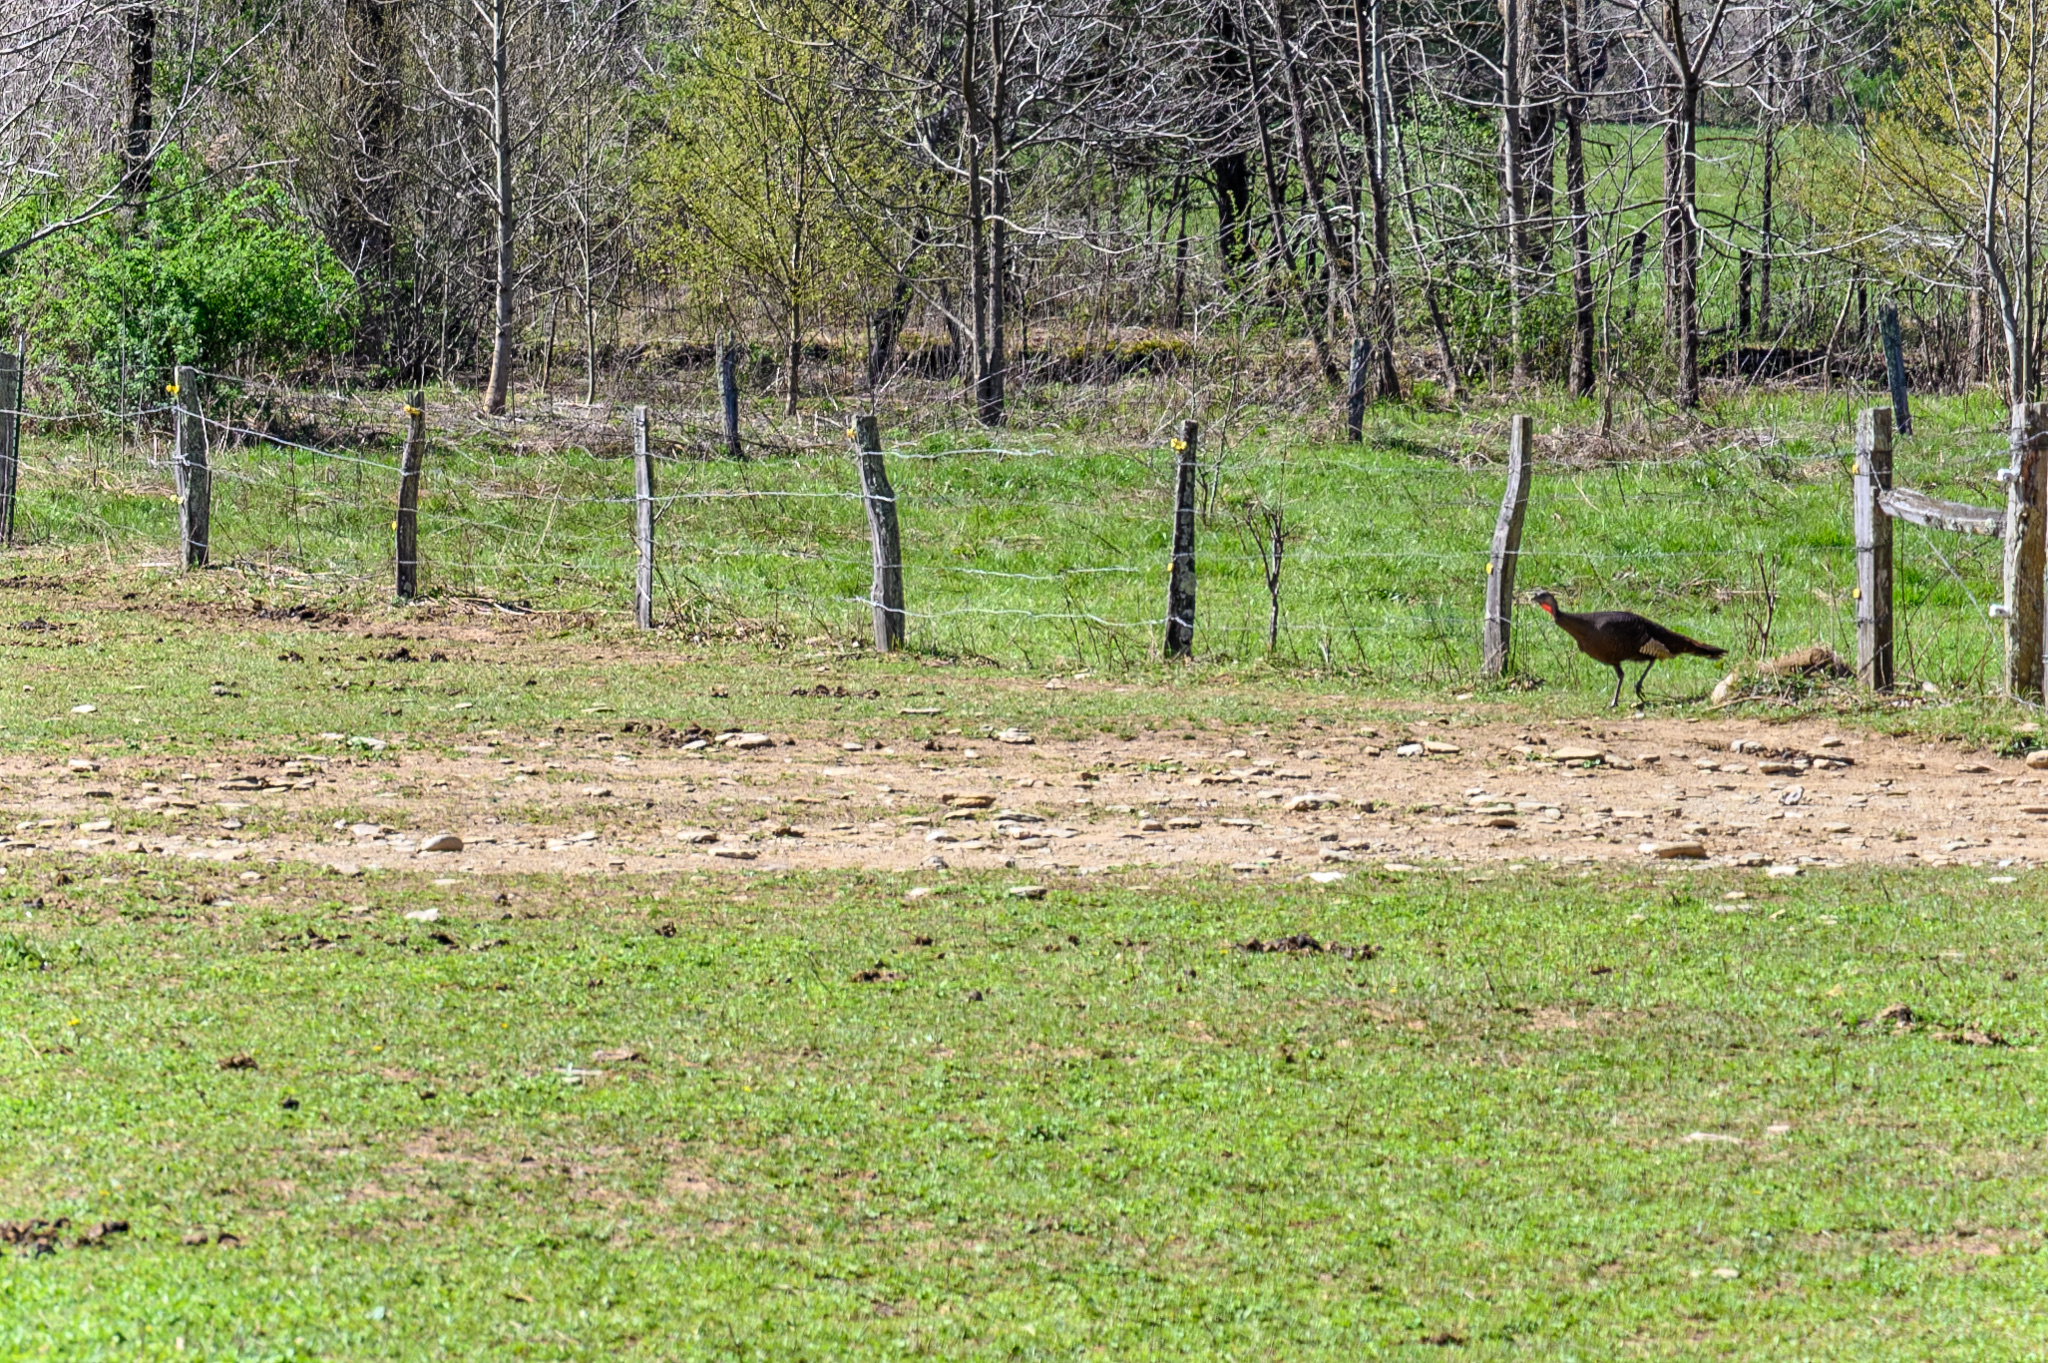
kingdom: Animalia
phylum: Chordata
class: Aves
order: Galliformes
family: Phasianidae
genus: Meleagris
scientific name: Meleagris gallopavo
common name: Wild turkey
